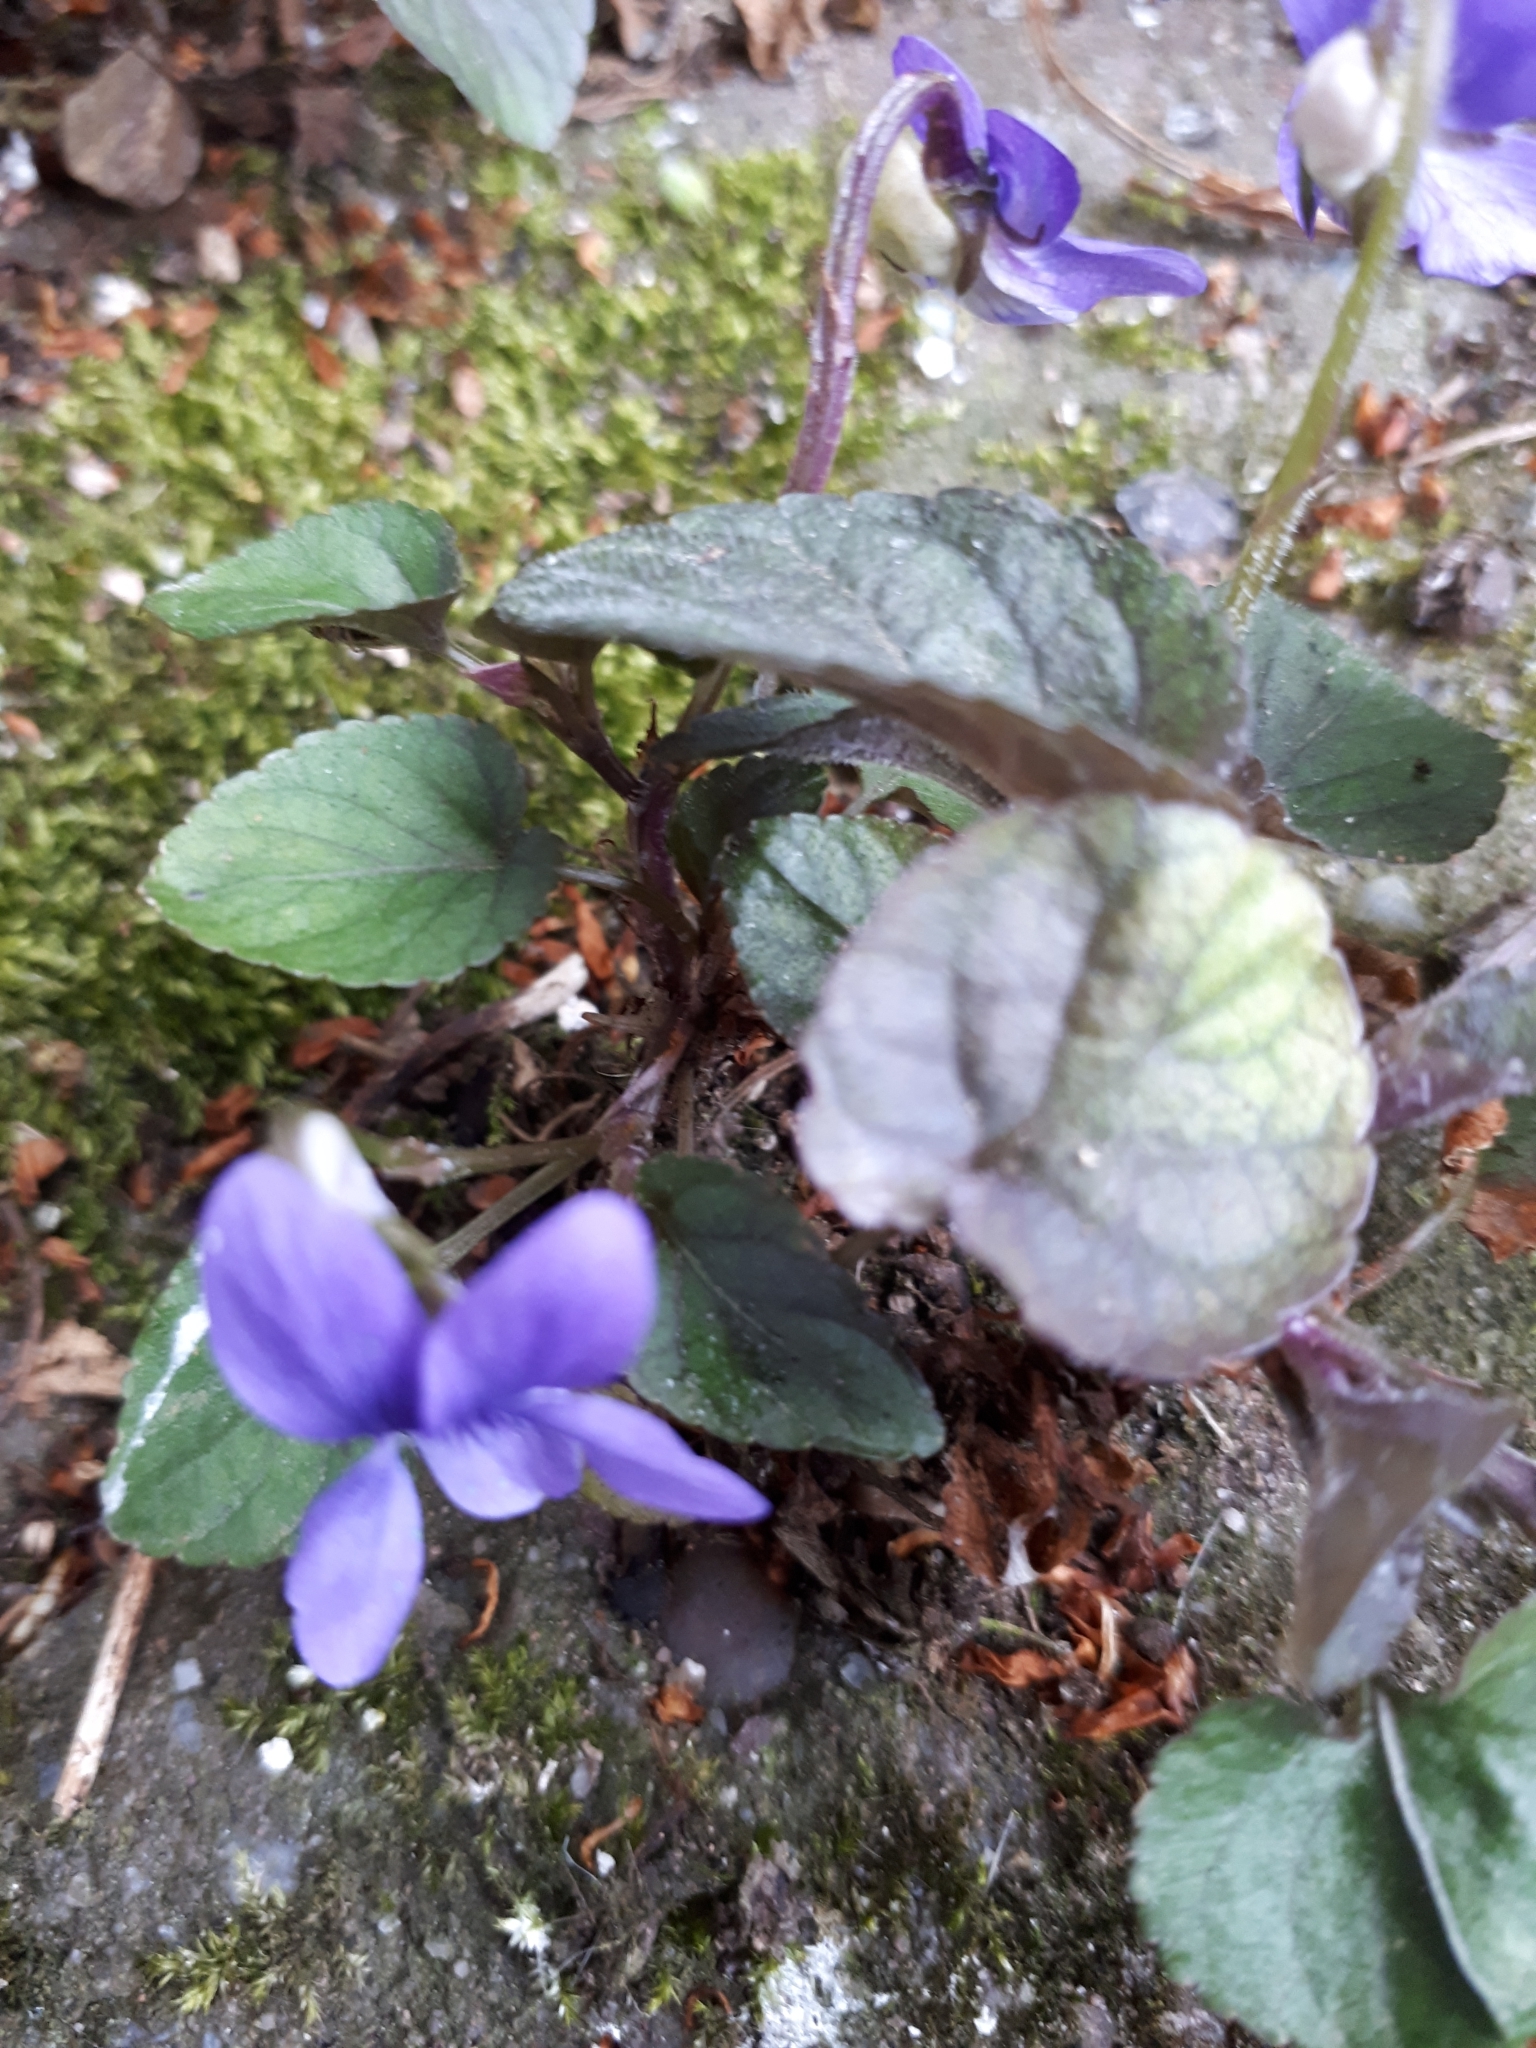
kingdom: Plantae
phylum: Tracheophyta
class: Magnoliopsida
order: Malpighiales
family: Violaceae
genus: Viola
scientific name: Viola riviniana
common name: Common dog-violet
